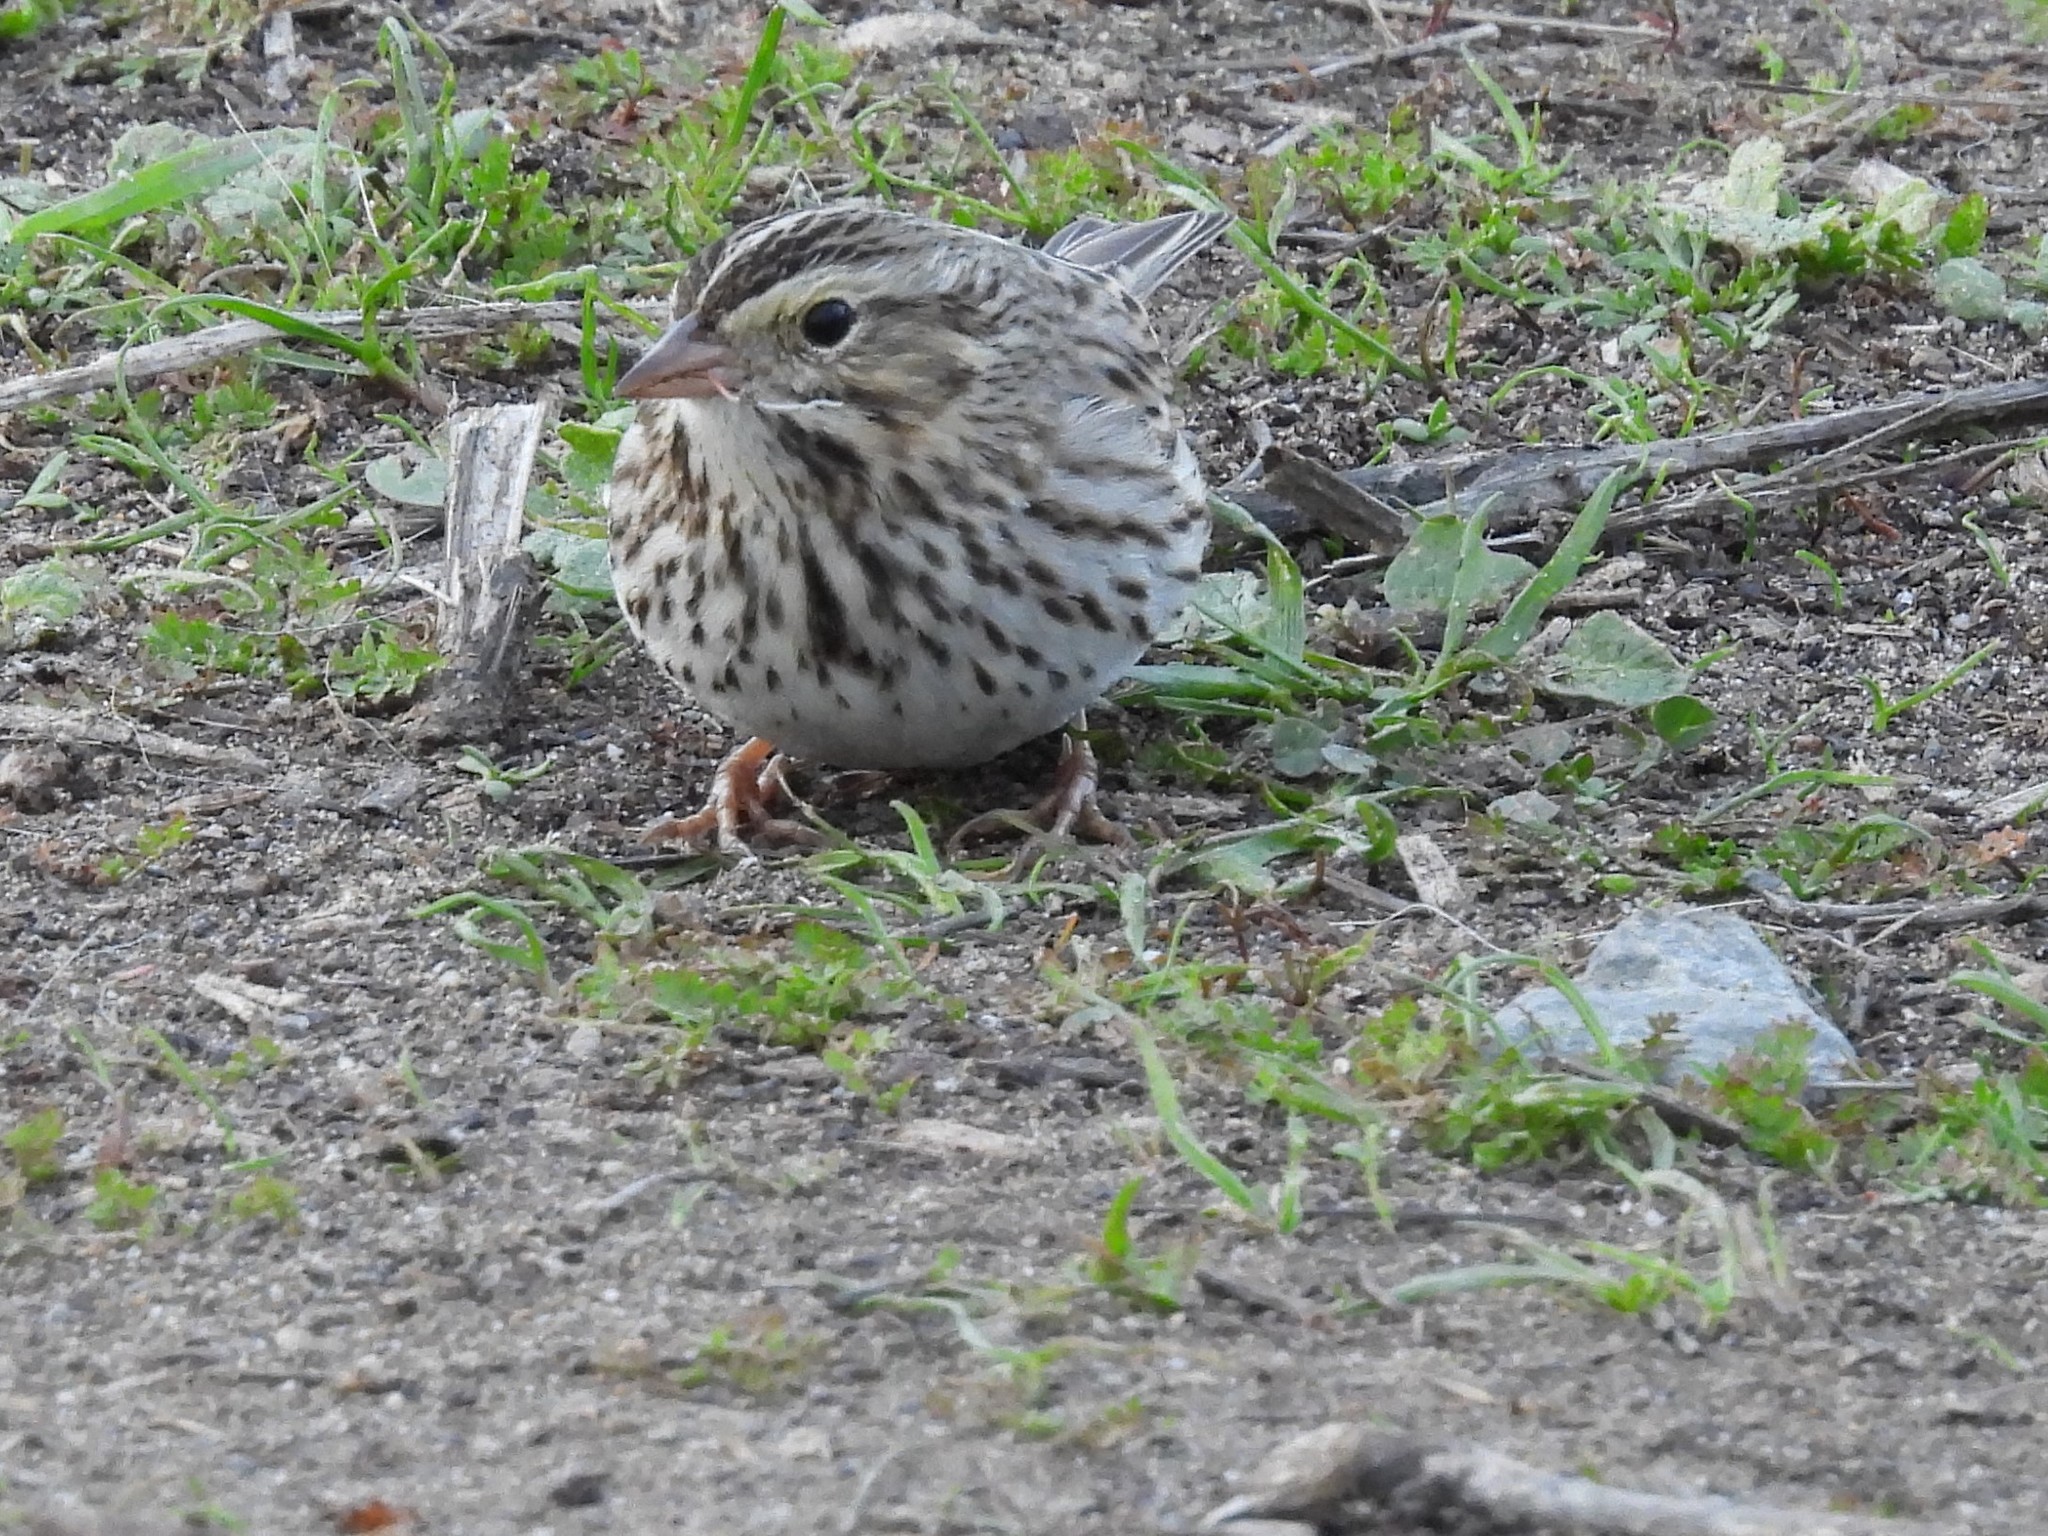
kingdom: Animalia
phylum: Chordata
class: Aves
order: Passeriformes
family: Passerellidae
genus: Passerculus
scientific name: Passerculus sandwichensis
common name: Savannah sparrow
